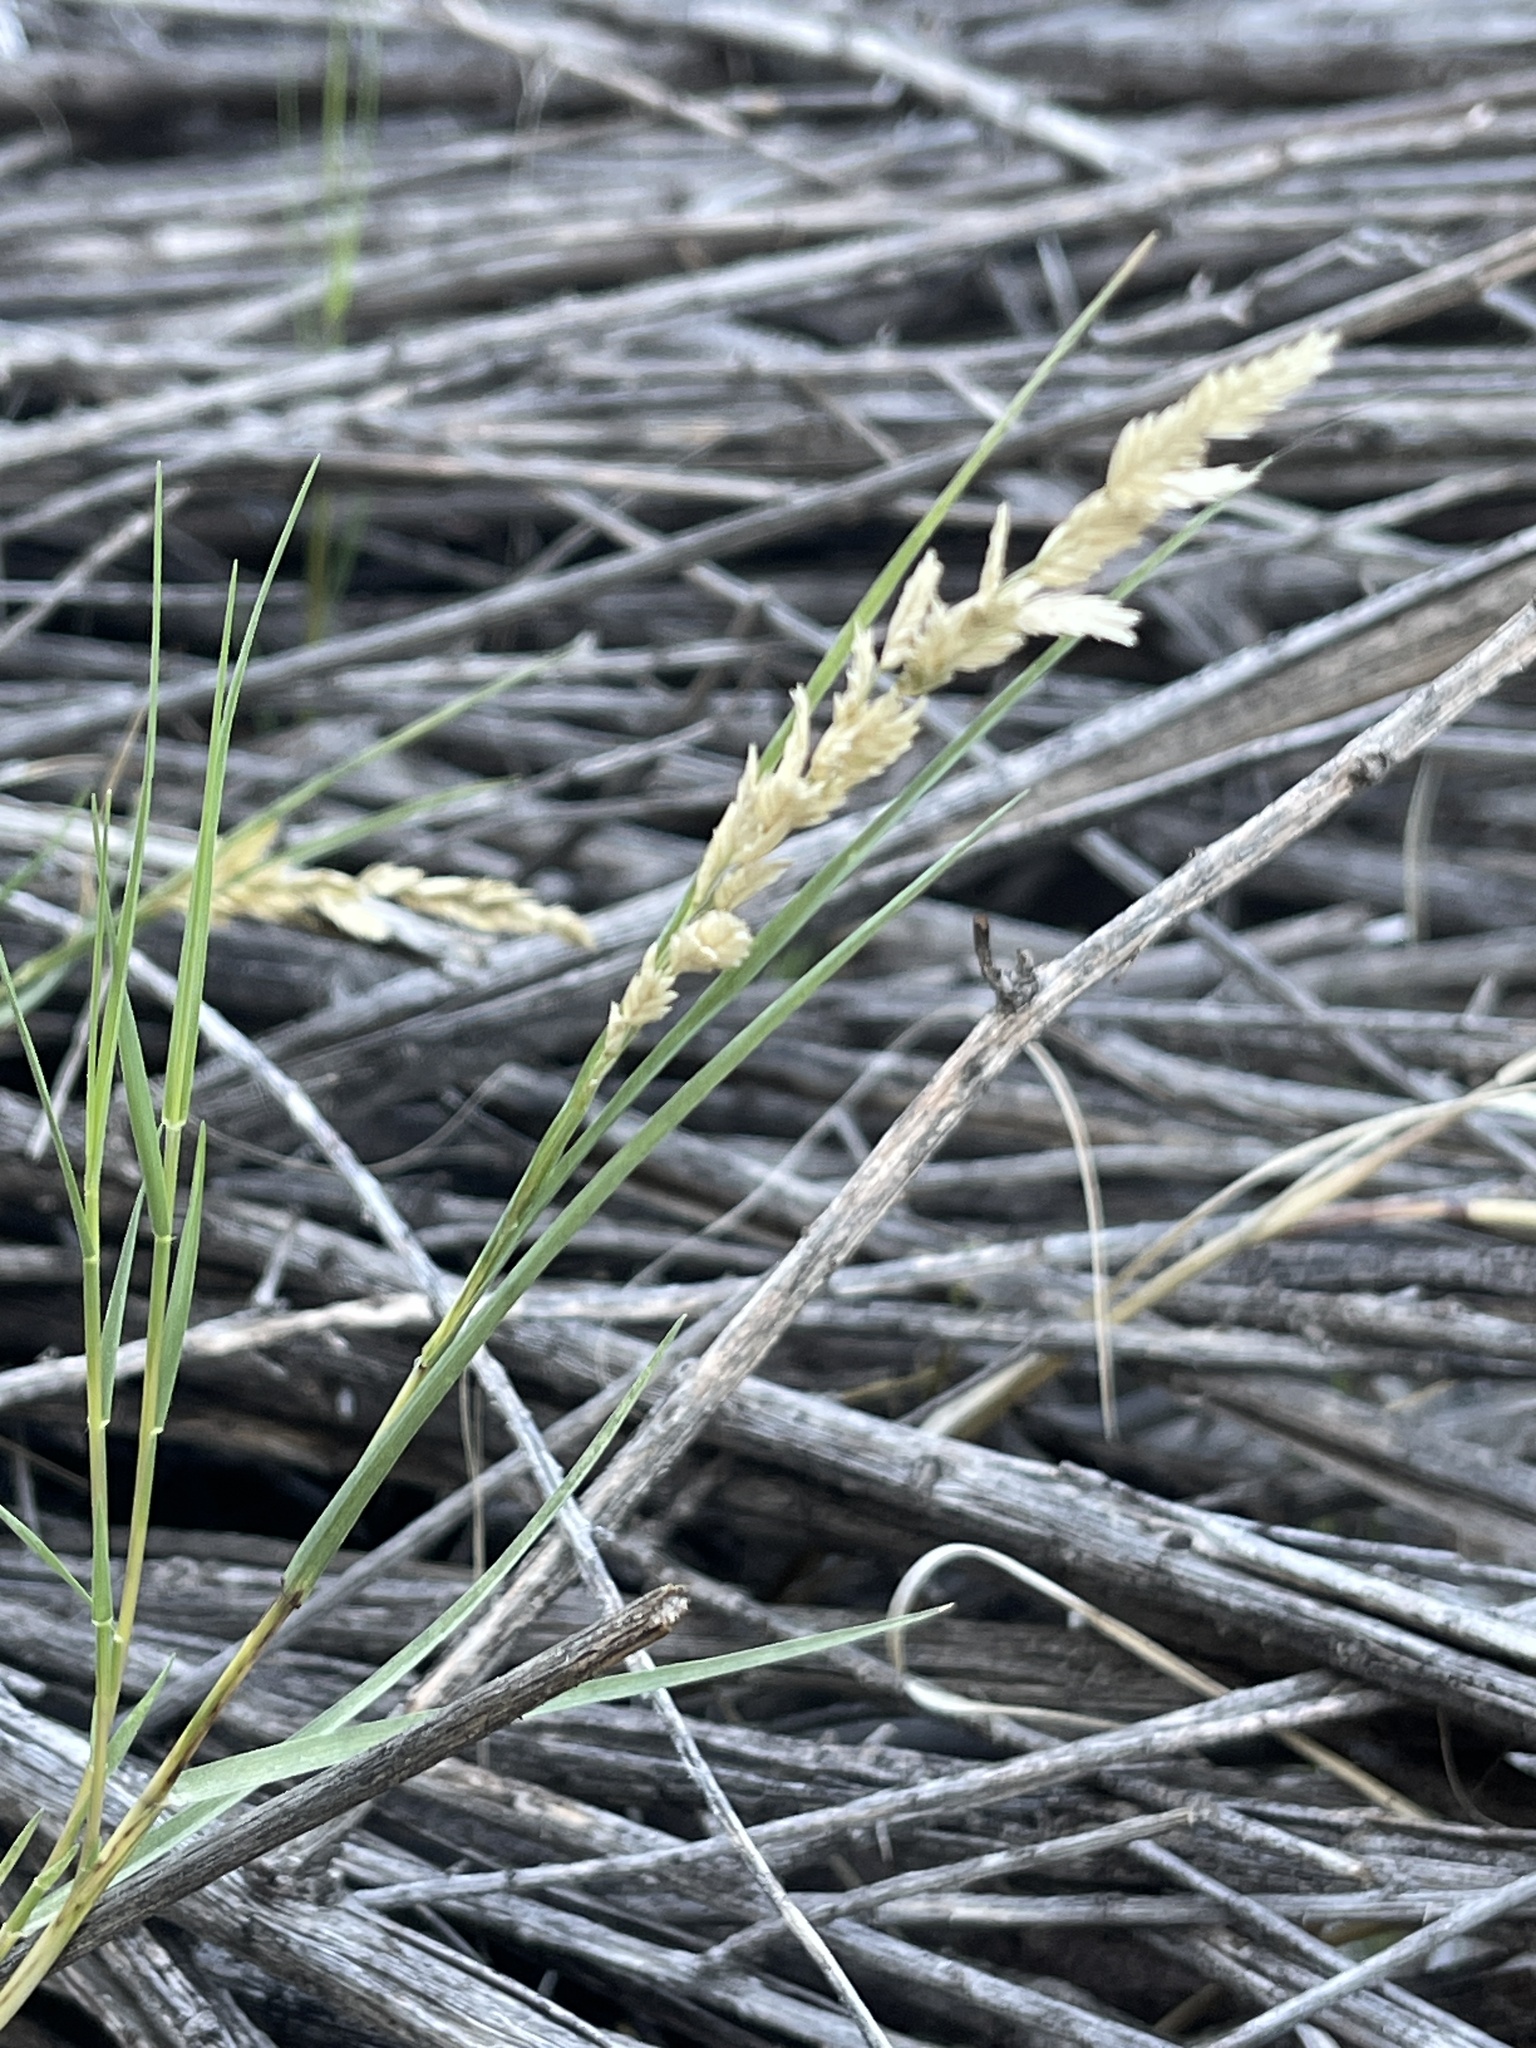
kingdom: Plantae
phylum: Tracheophyta
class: Liliopsida
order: Poales
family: Poaceae
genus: Distichlis
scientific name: Distichlis spicata
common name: Saltgrass
